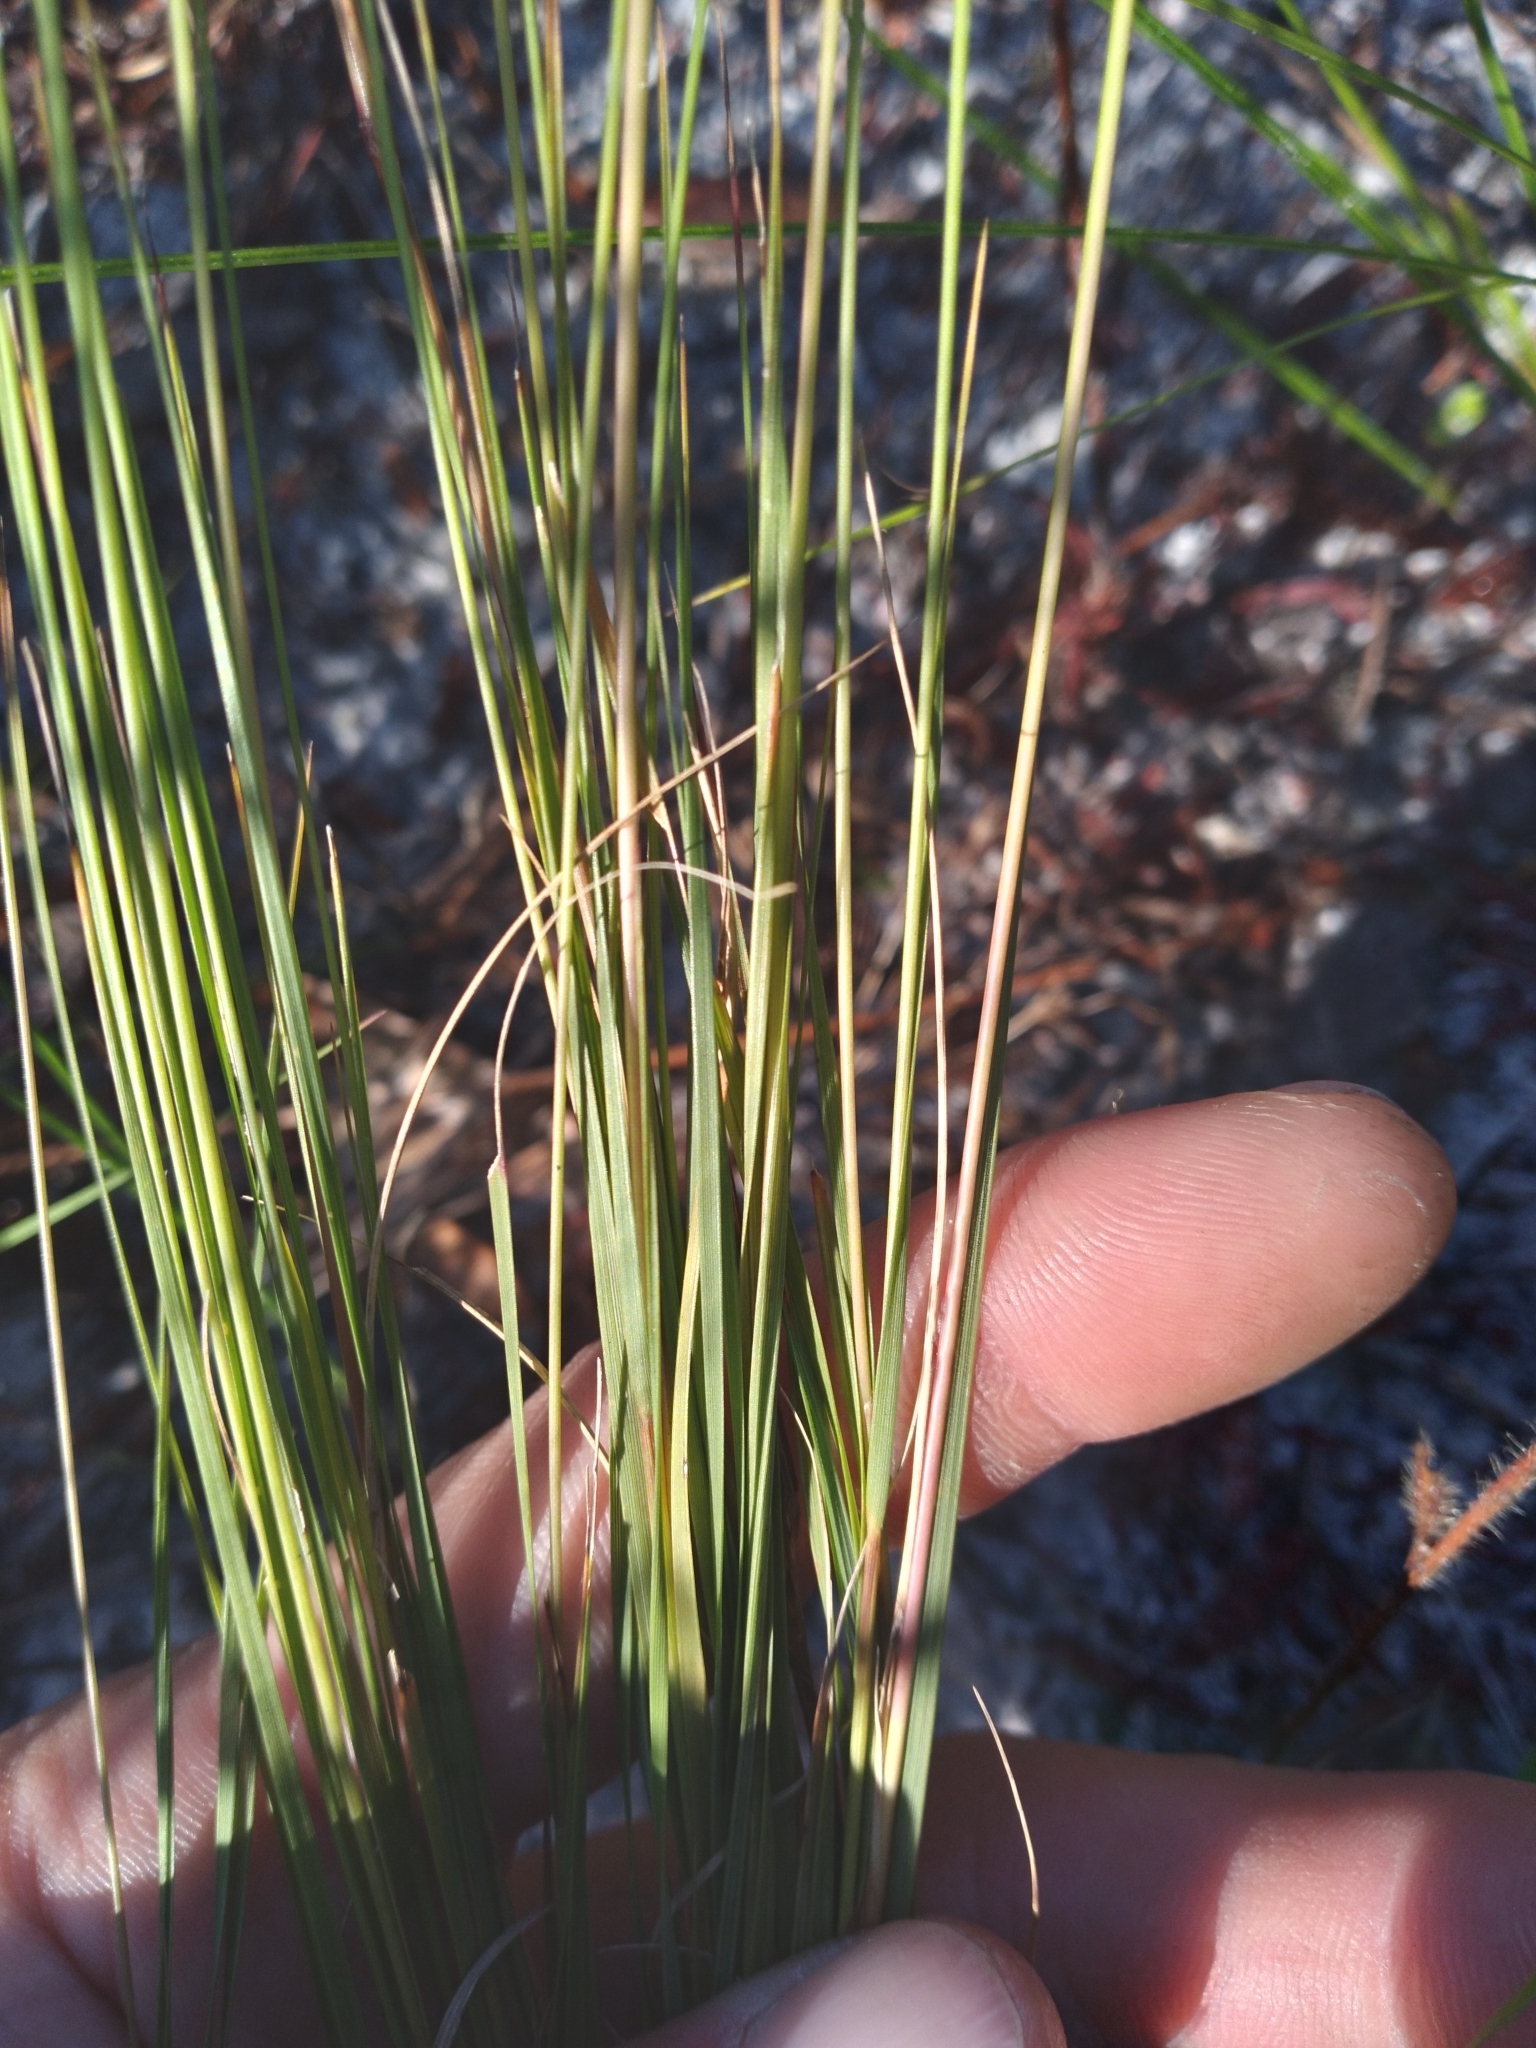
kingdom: Plantae
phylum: Tracheophyta
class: Liliopsida
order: Poales
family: Poaceae
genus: Aristida
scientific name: Aristida purpurascens
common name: Arrow-feather
